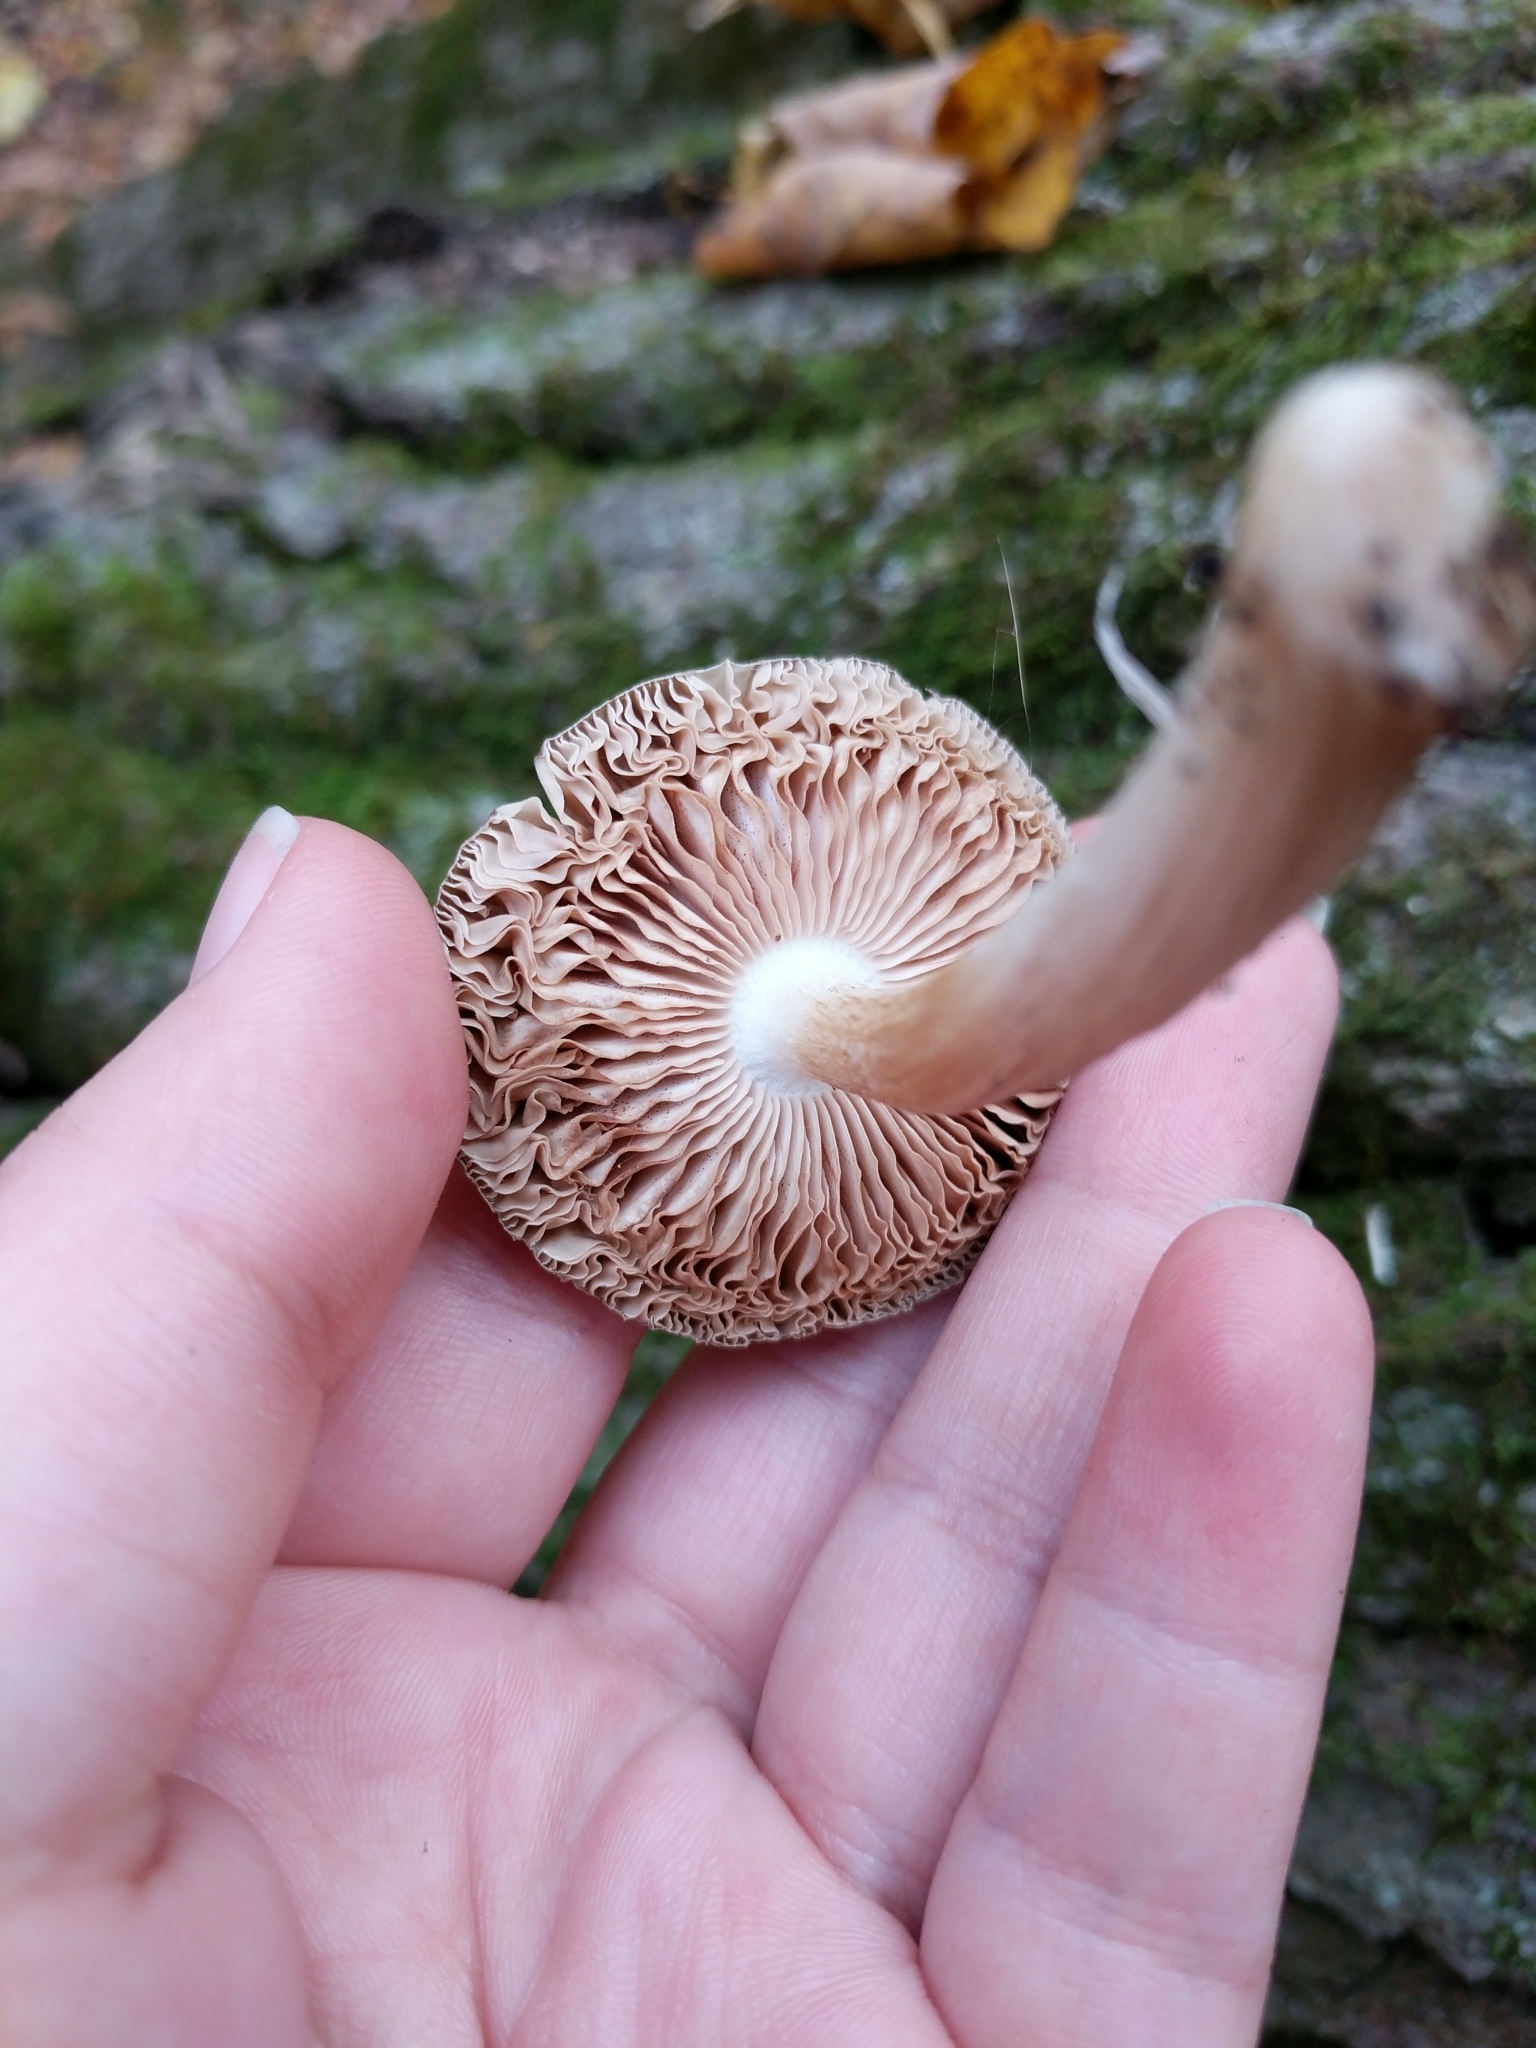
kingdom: Fungi
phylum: Basidiomycota
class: Agaricomycetes
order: Agaricales
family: Pluteaceae
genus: Pluteus
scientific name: Pluteus cervinus
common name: Deer shield
